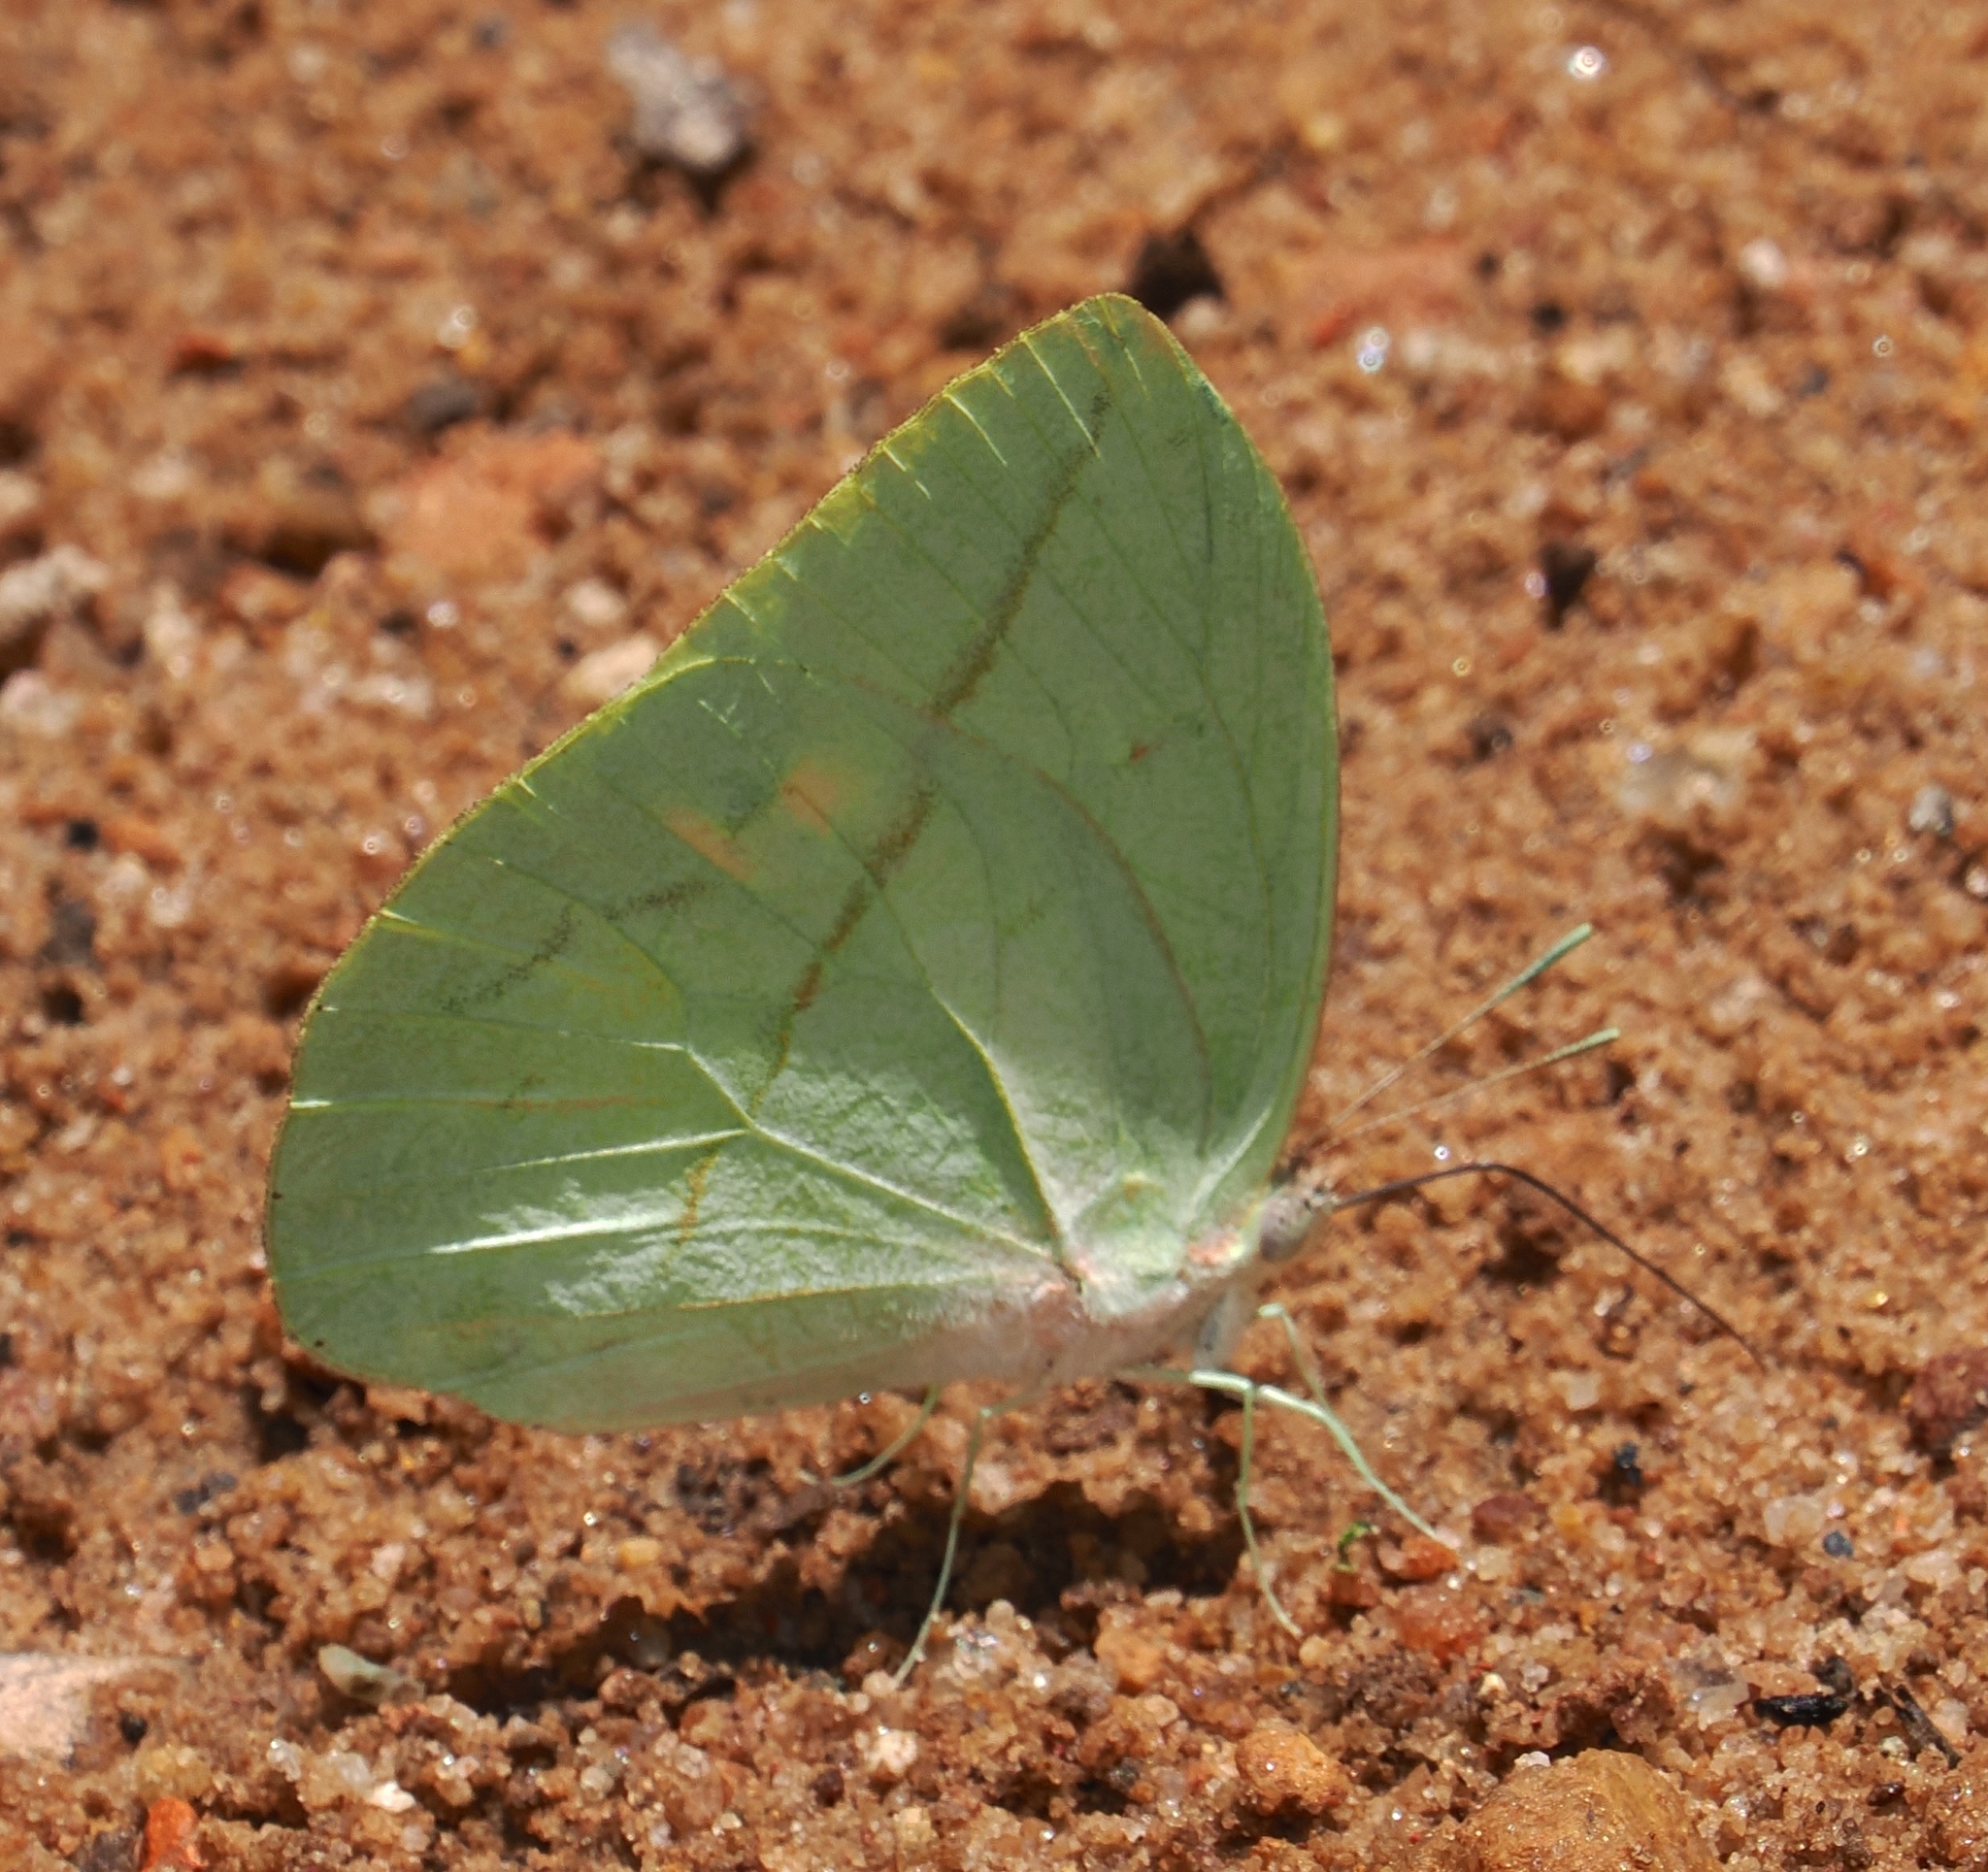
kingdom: Animalia
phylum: Arthropoda
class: Insecta
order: Lepidoptera
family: Pieridae
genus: Rhabdodryas
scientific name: Rhabdodryas trite
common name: Straight-lined sulphur
